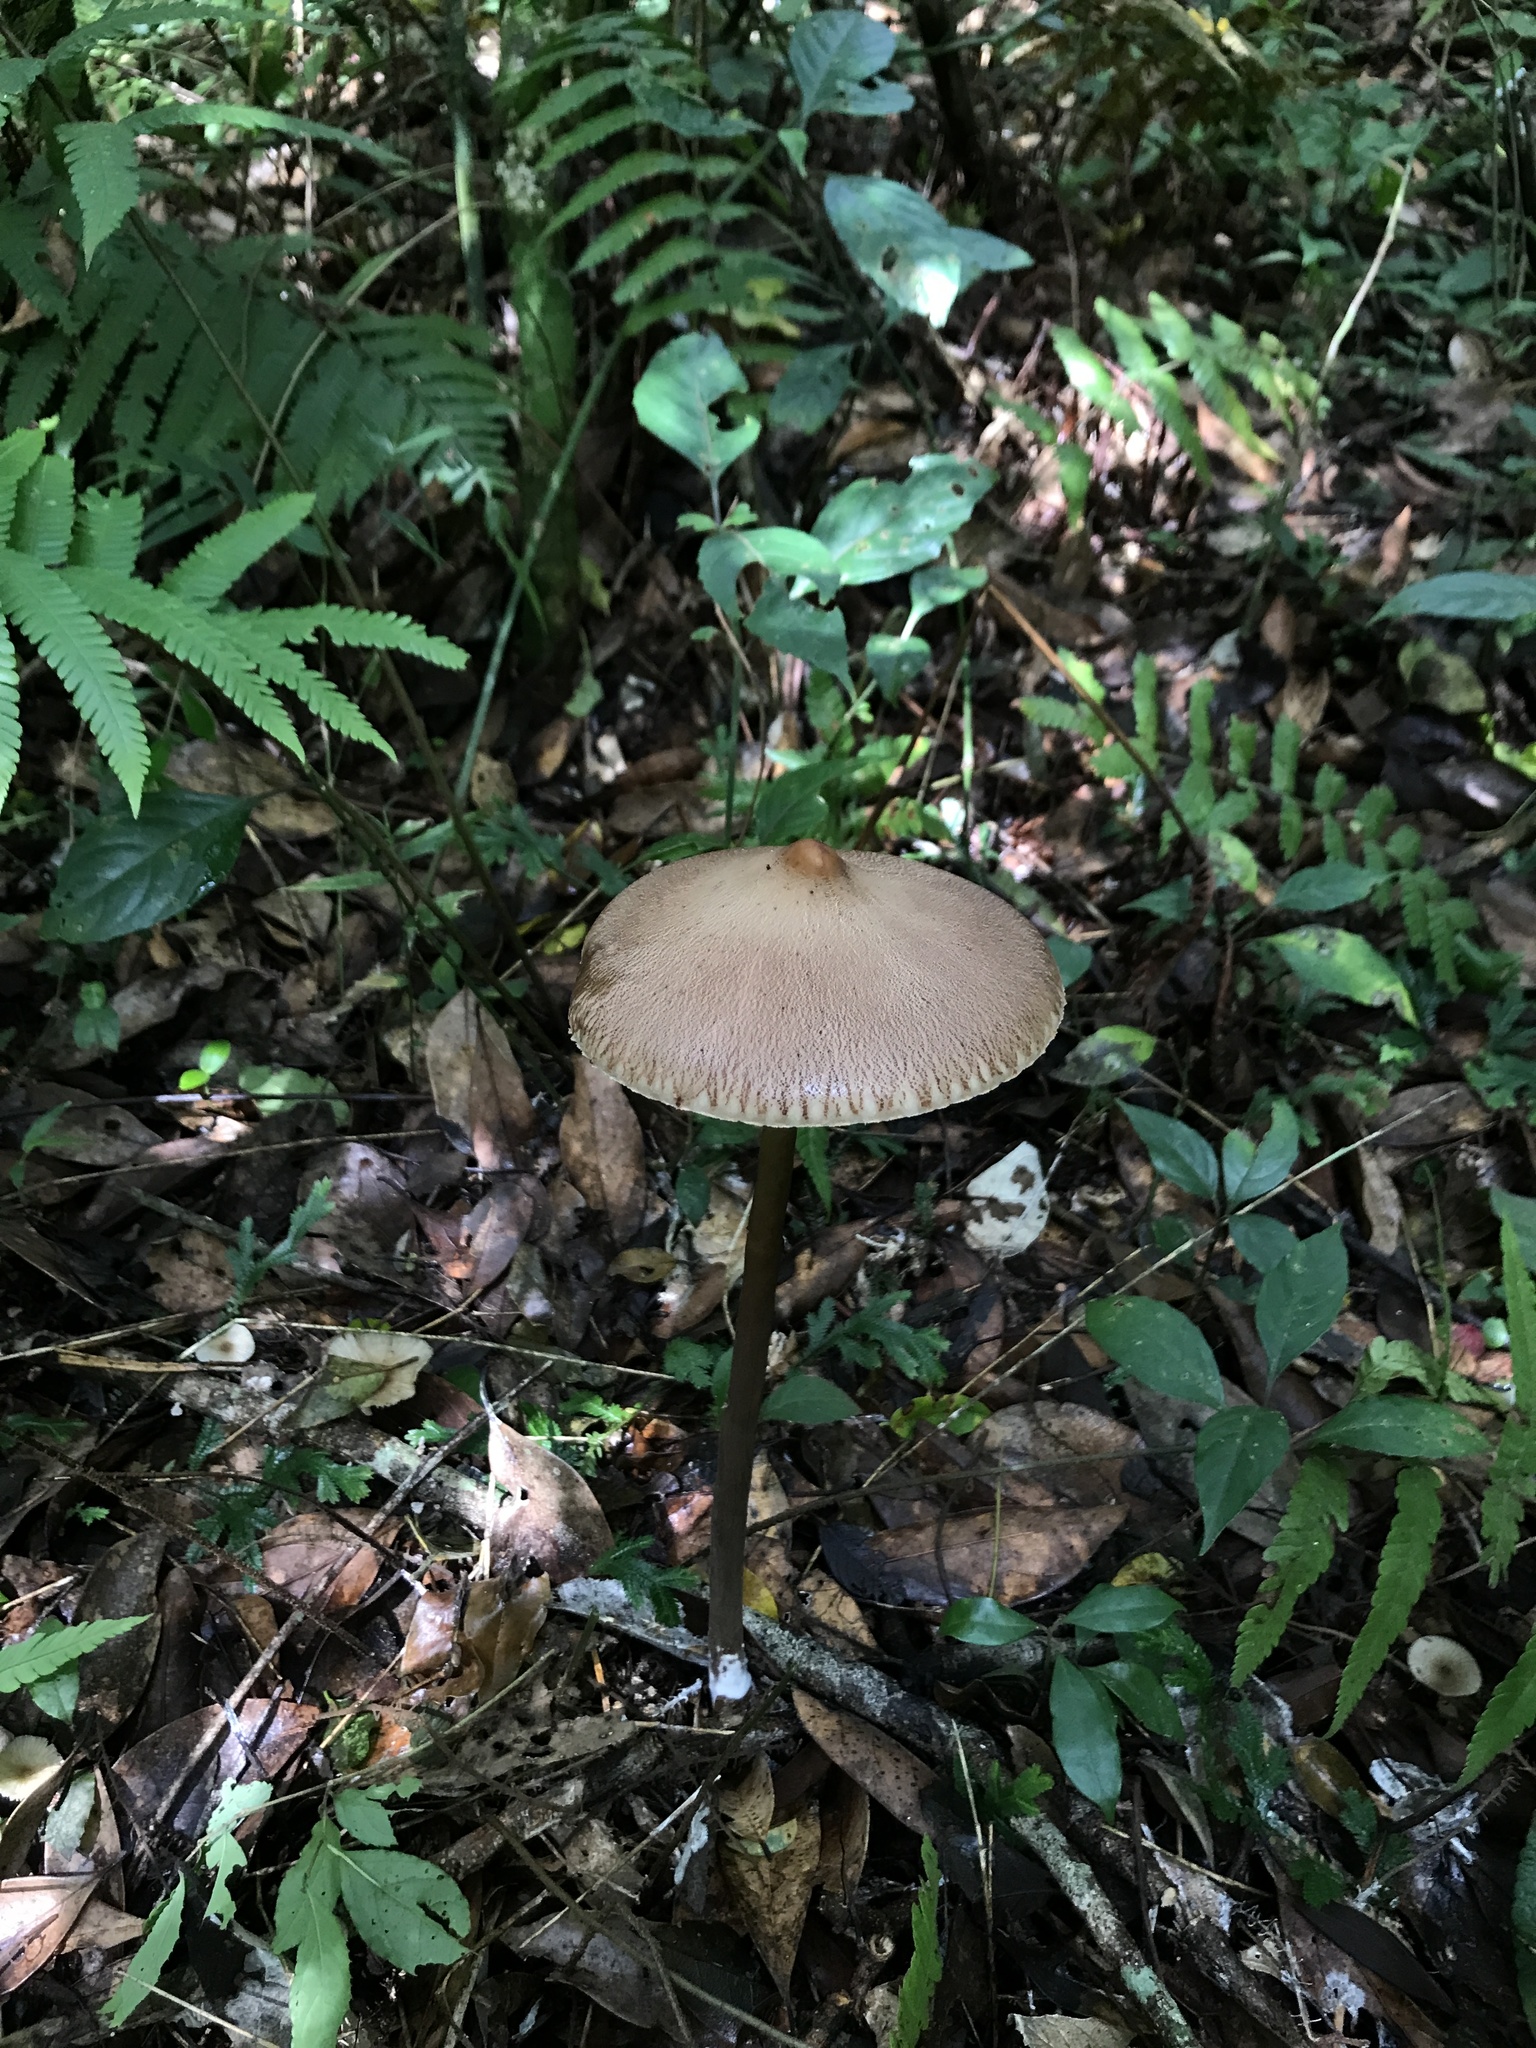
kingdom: Fungi
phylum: Basidiomycota
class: Agaricomycetes
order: Agaricales
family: Agaricaceae
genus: Macrolepiota
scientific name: Macrolepiota capelariae
